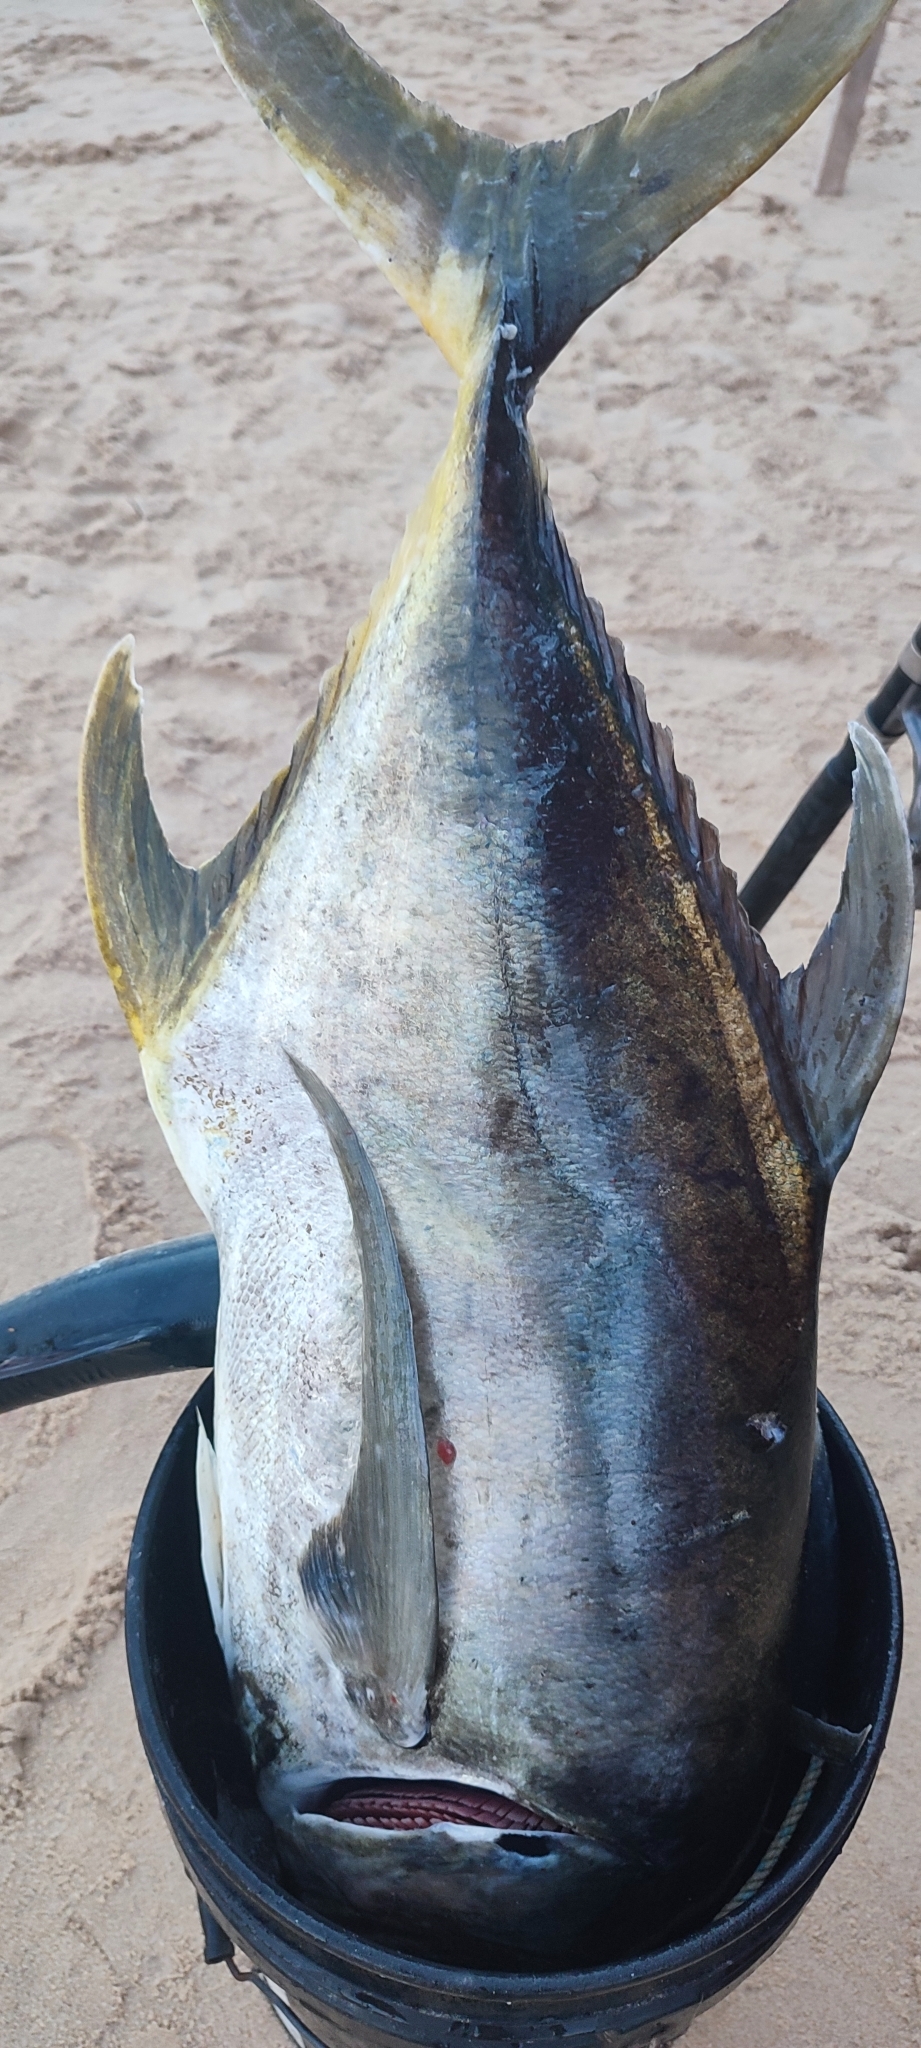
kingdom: Animalia
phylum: Chordata
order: Perciformes
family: Carangidae
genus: Caranx
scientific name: Caranx caninus
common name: Pacific crevalle jack
